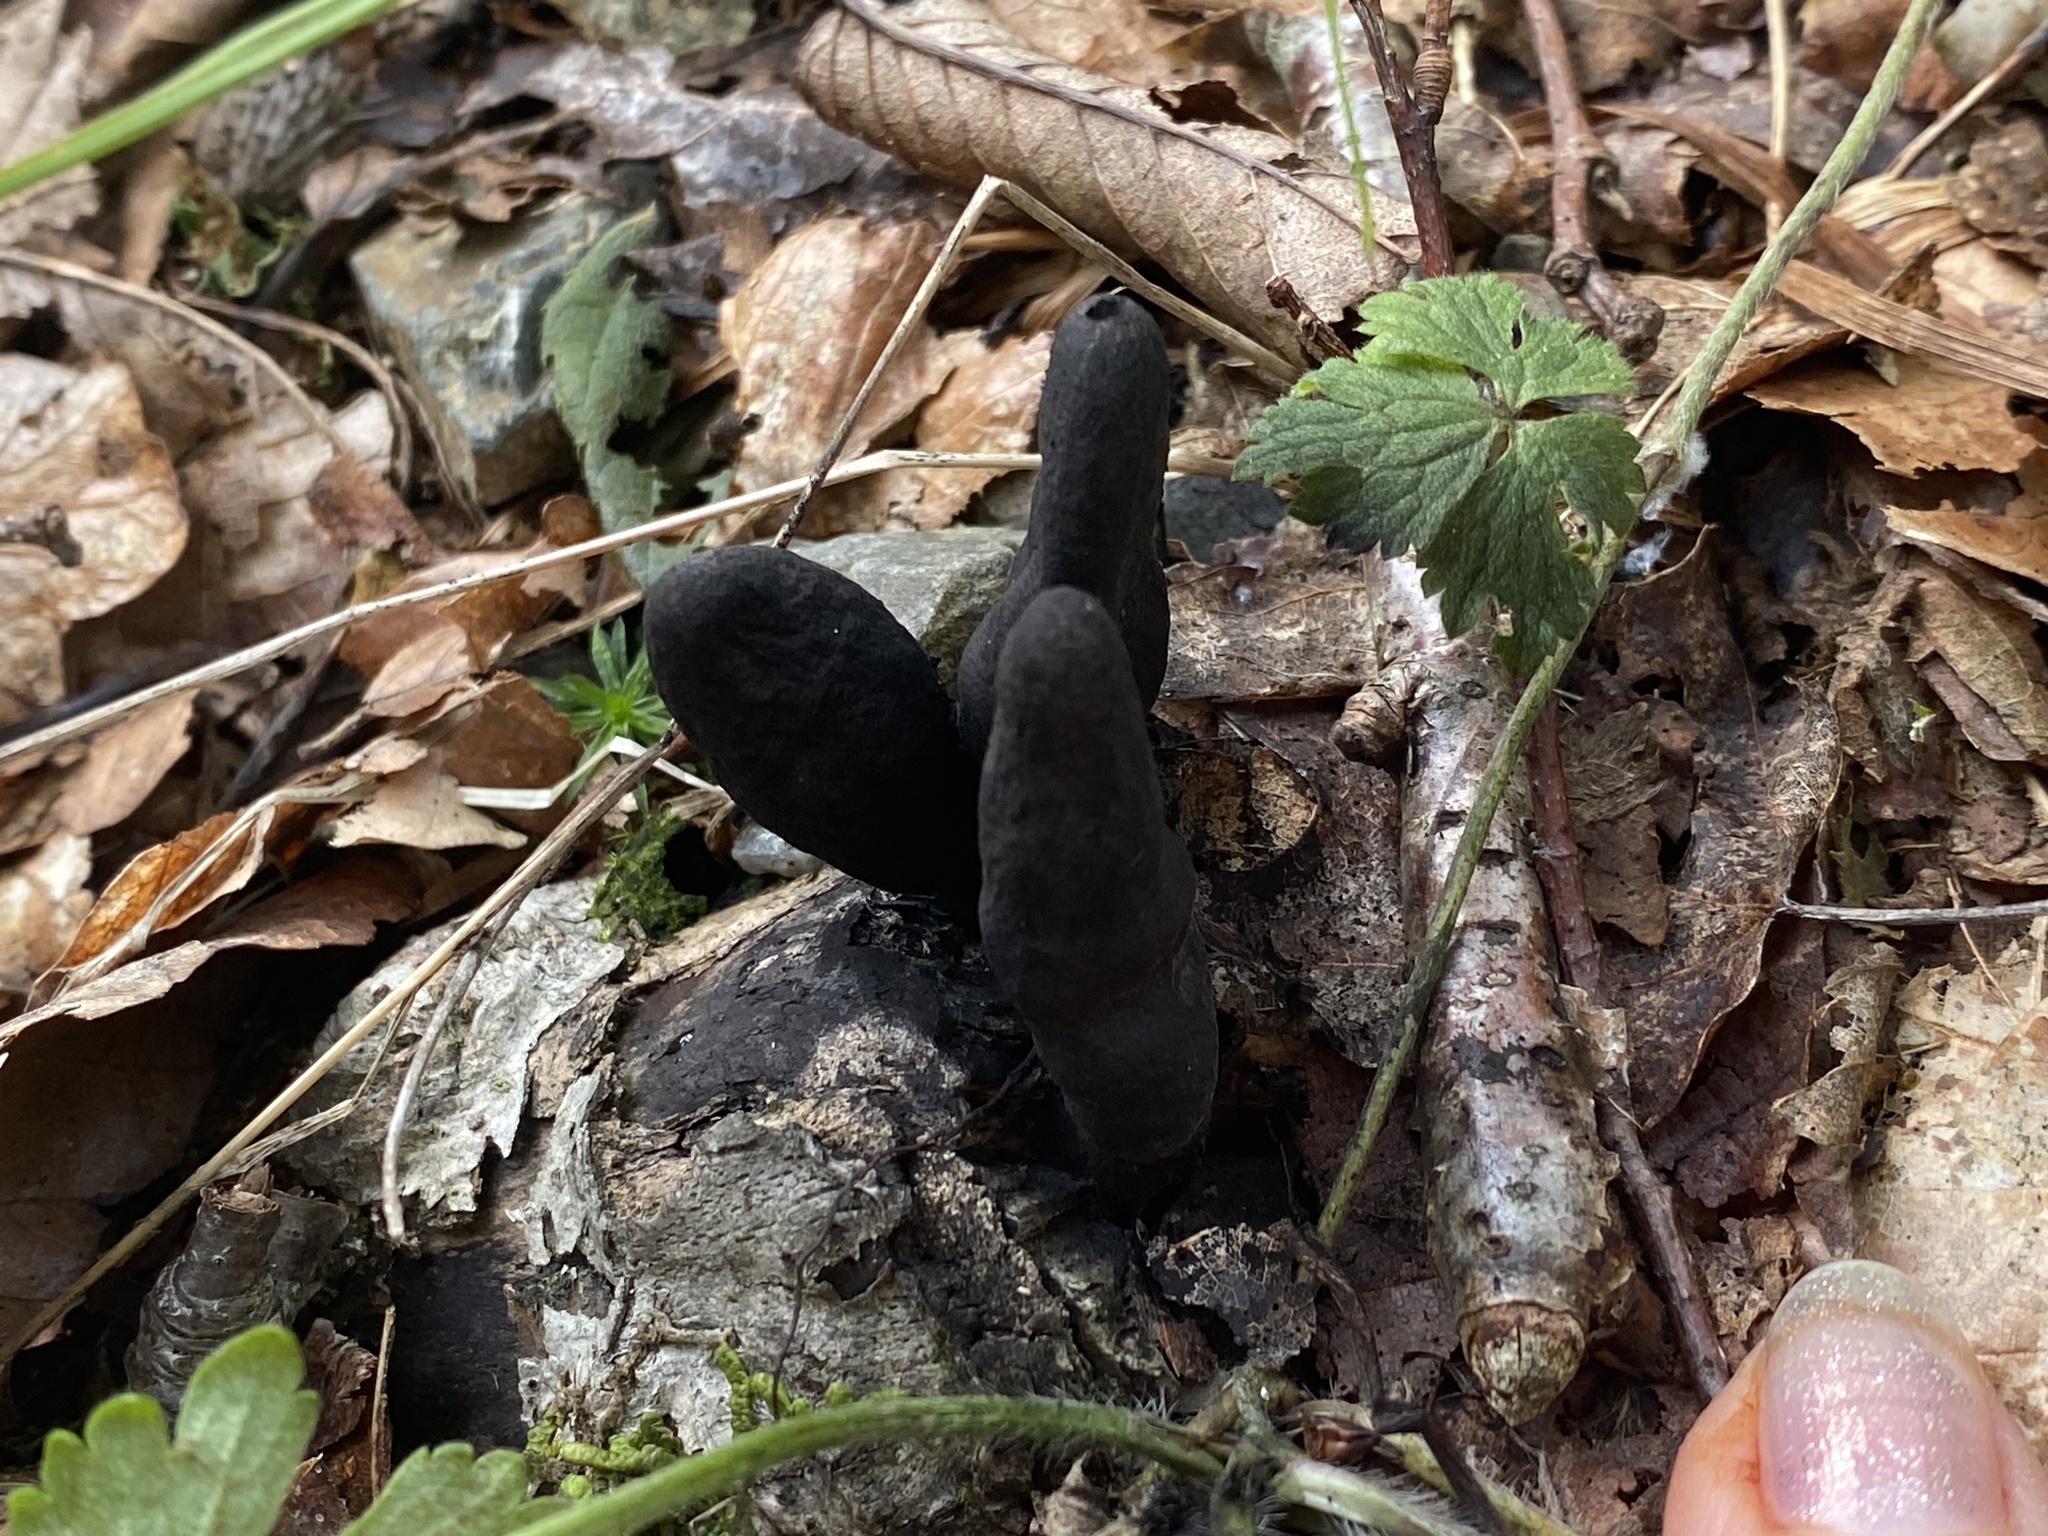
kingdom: Fungi
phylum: Ascomycota
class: Sordariomycetes
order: Xylariales
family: Xylariaceae
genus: Xylaria
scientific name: Xylaria polymorpha
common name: Dead man's fingers
